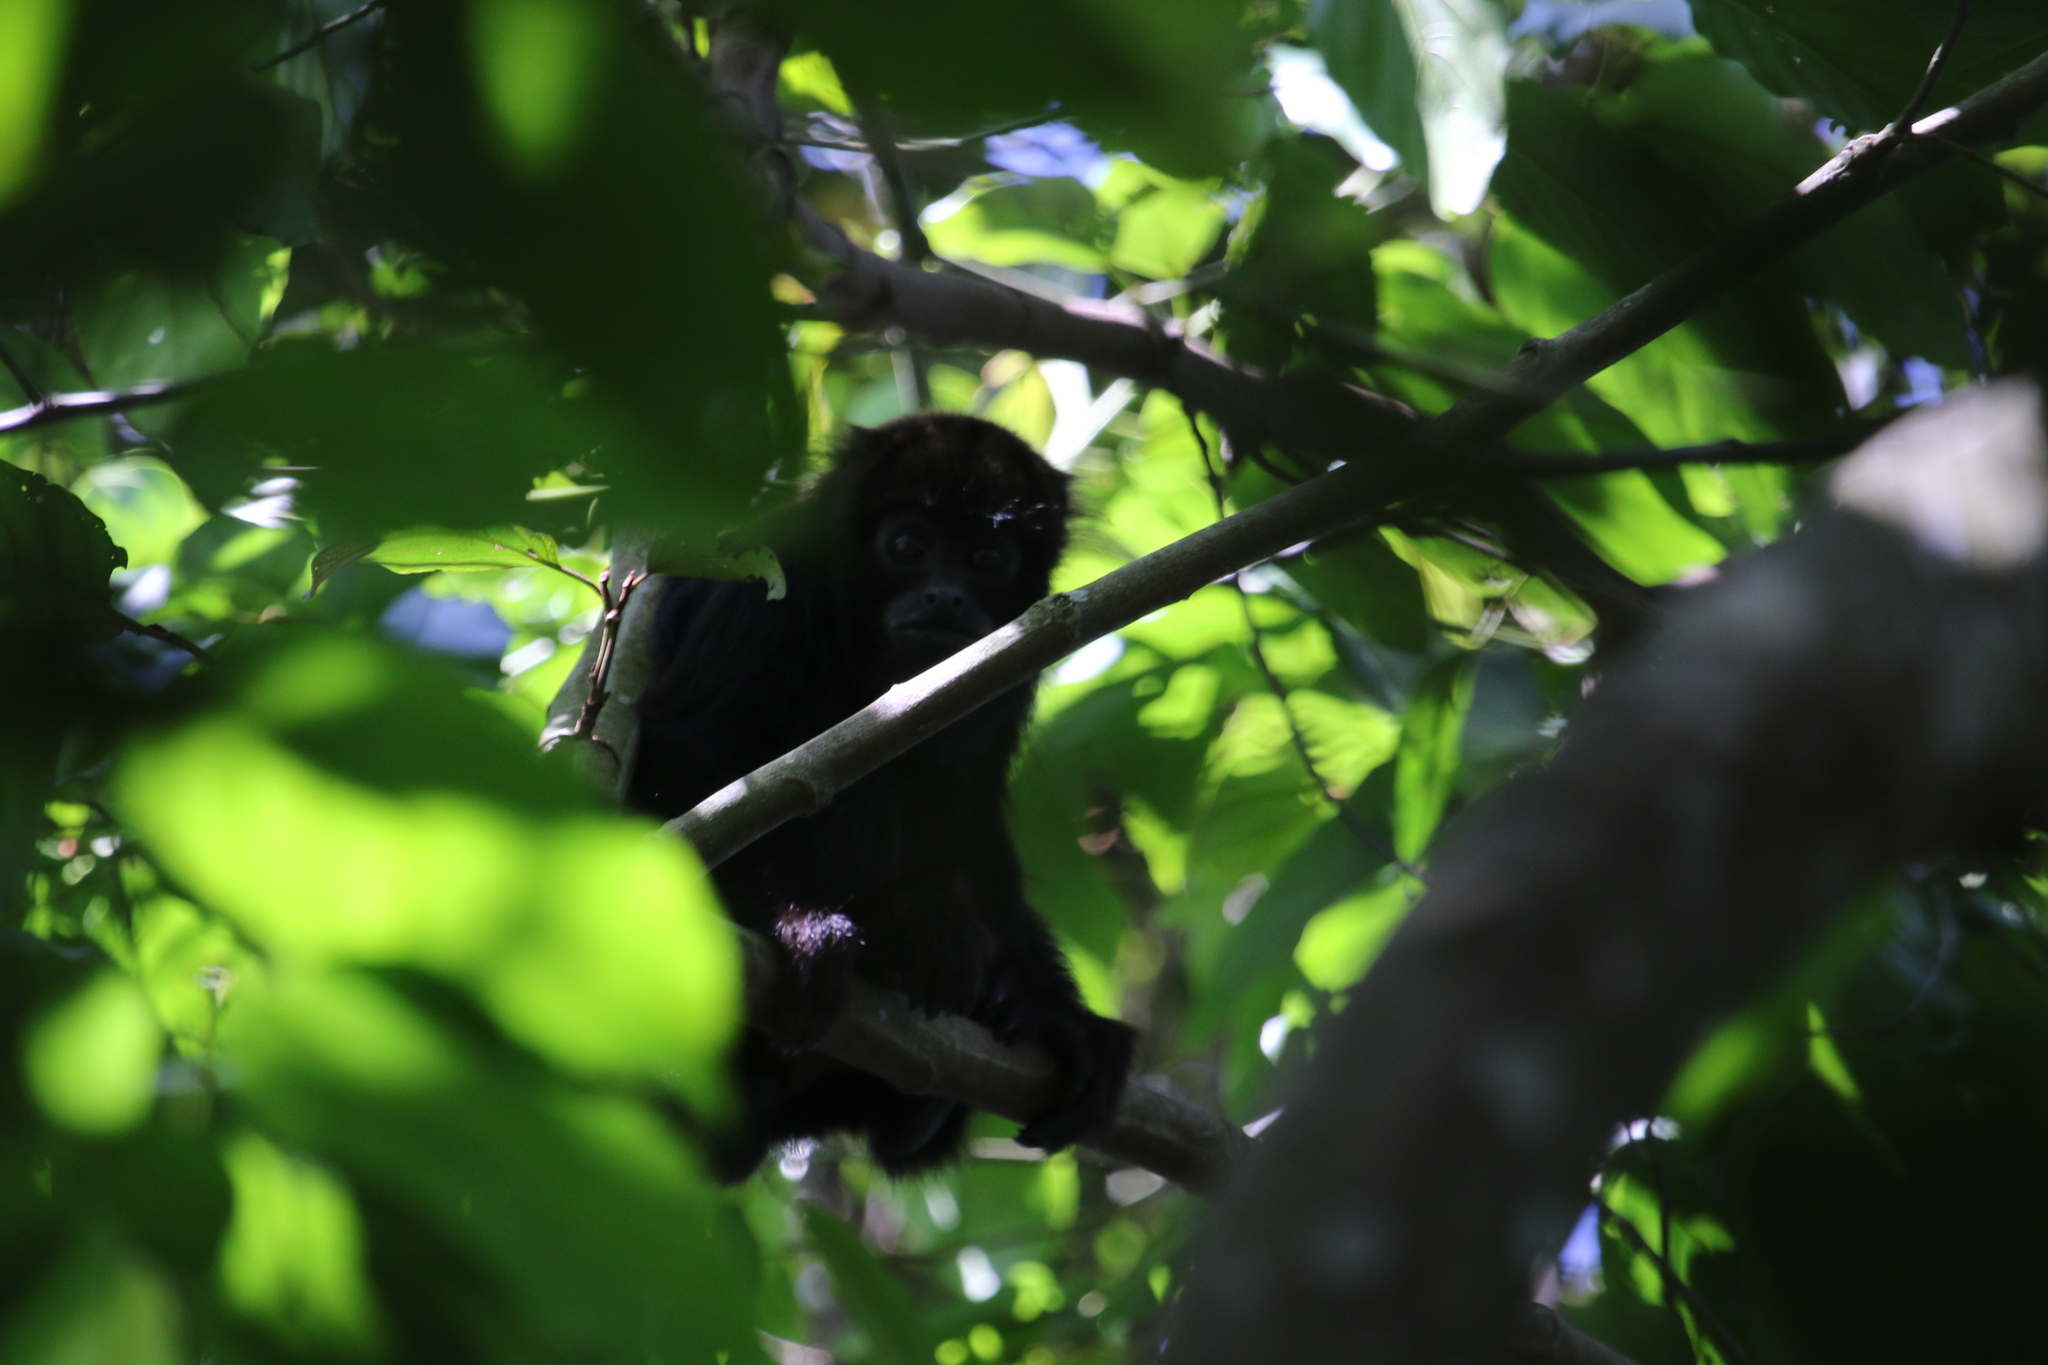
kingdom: Animalia
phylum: Chordata
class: Mammalia
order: Primates
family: Atelidae
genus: Alouatta
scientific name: Alouatta guariba
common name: Brown howler monkey
